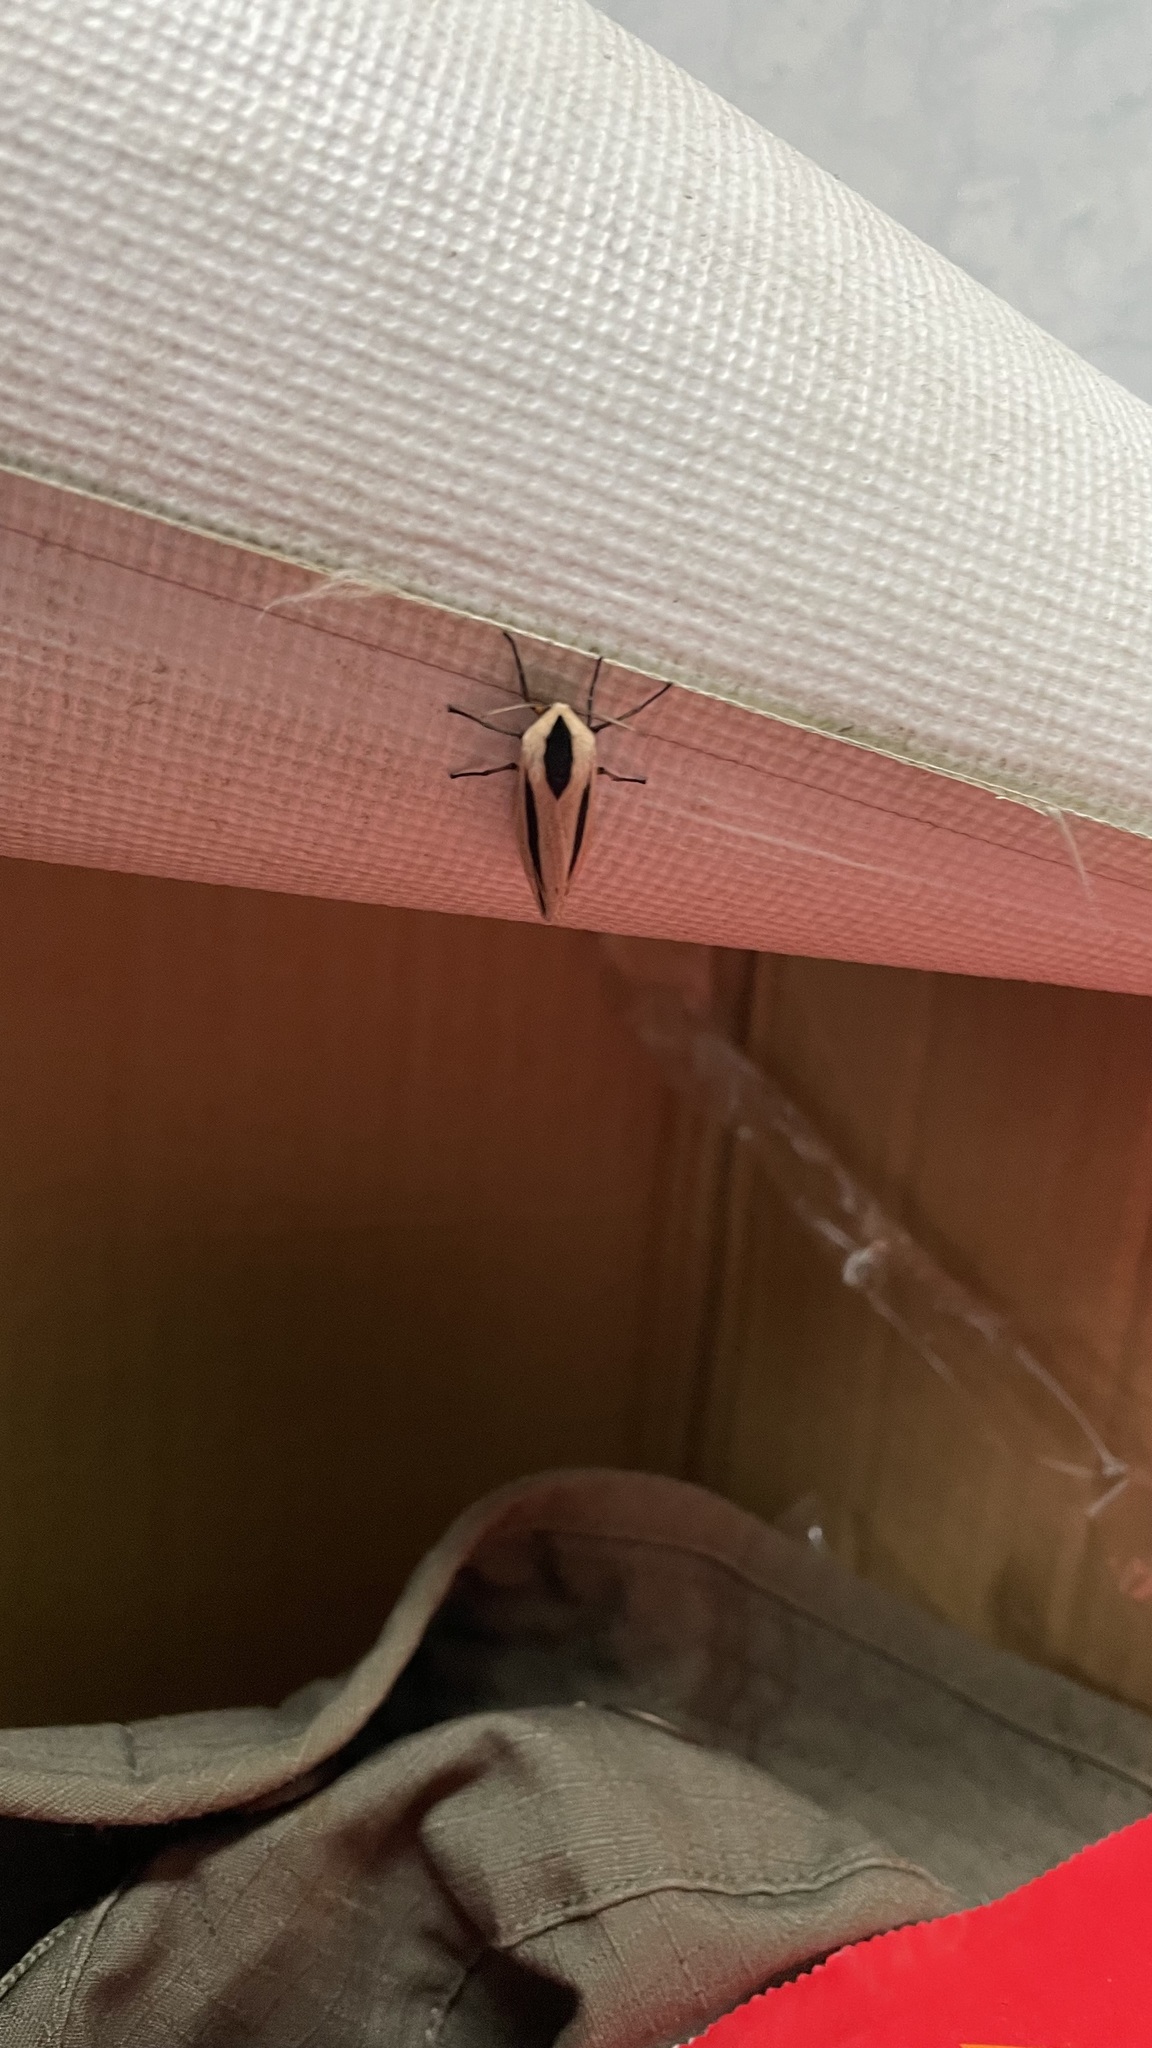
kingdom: Animalia
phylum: Arthropoda
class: Insecta
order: Lepidoptera
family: Erebidae
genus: Creatonotos
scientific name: Creatonotos gangis
